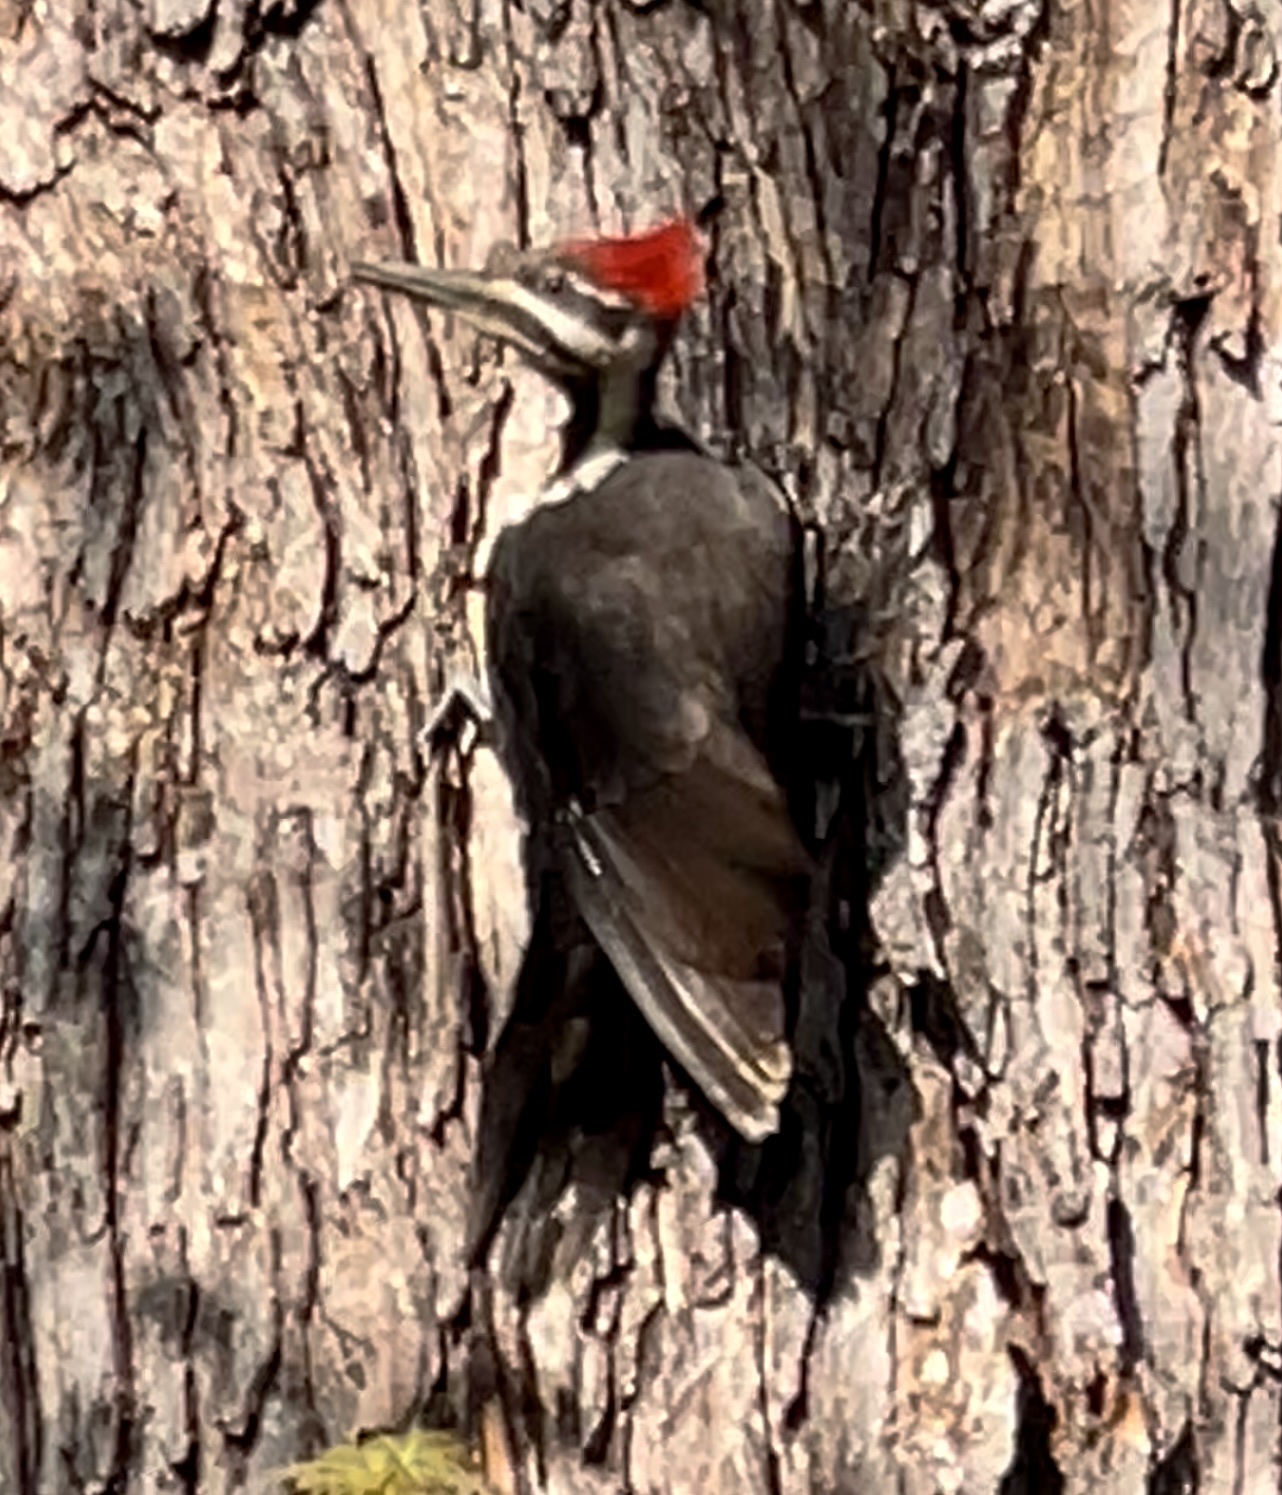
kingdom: Animalia
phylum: Chordata
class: Aves
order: Piciformes
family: Picidae
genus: Dryocopus
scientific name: Dryocopus pileatus
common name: Pileated woodpecker
